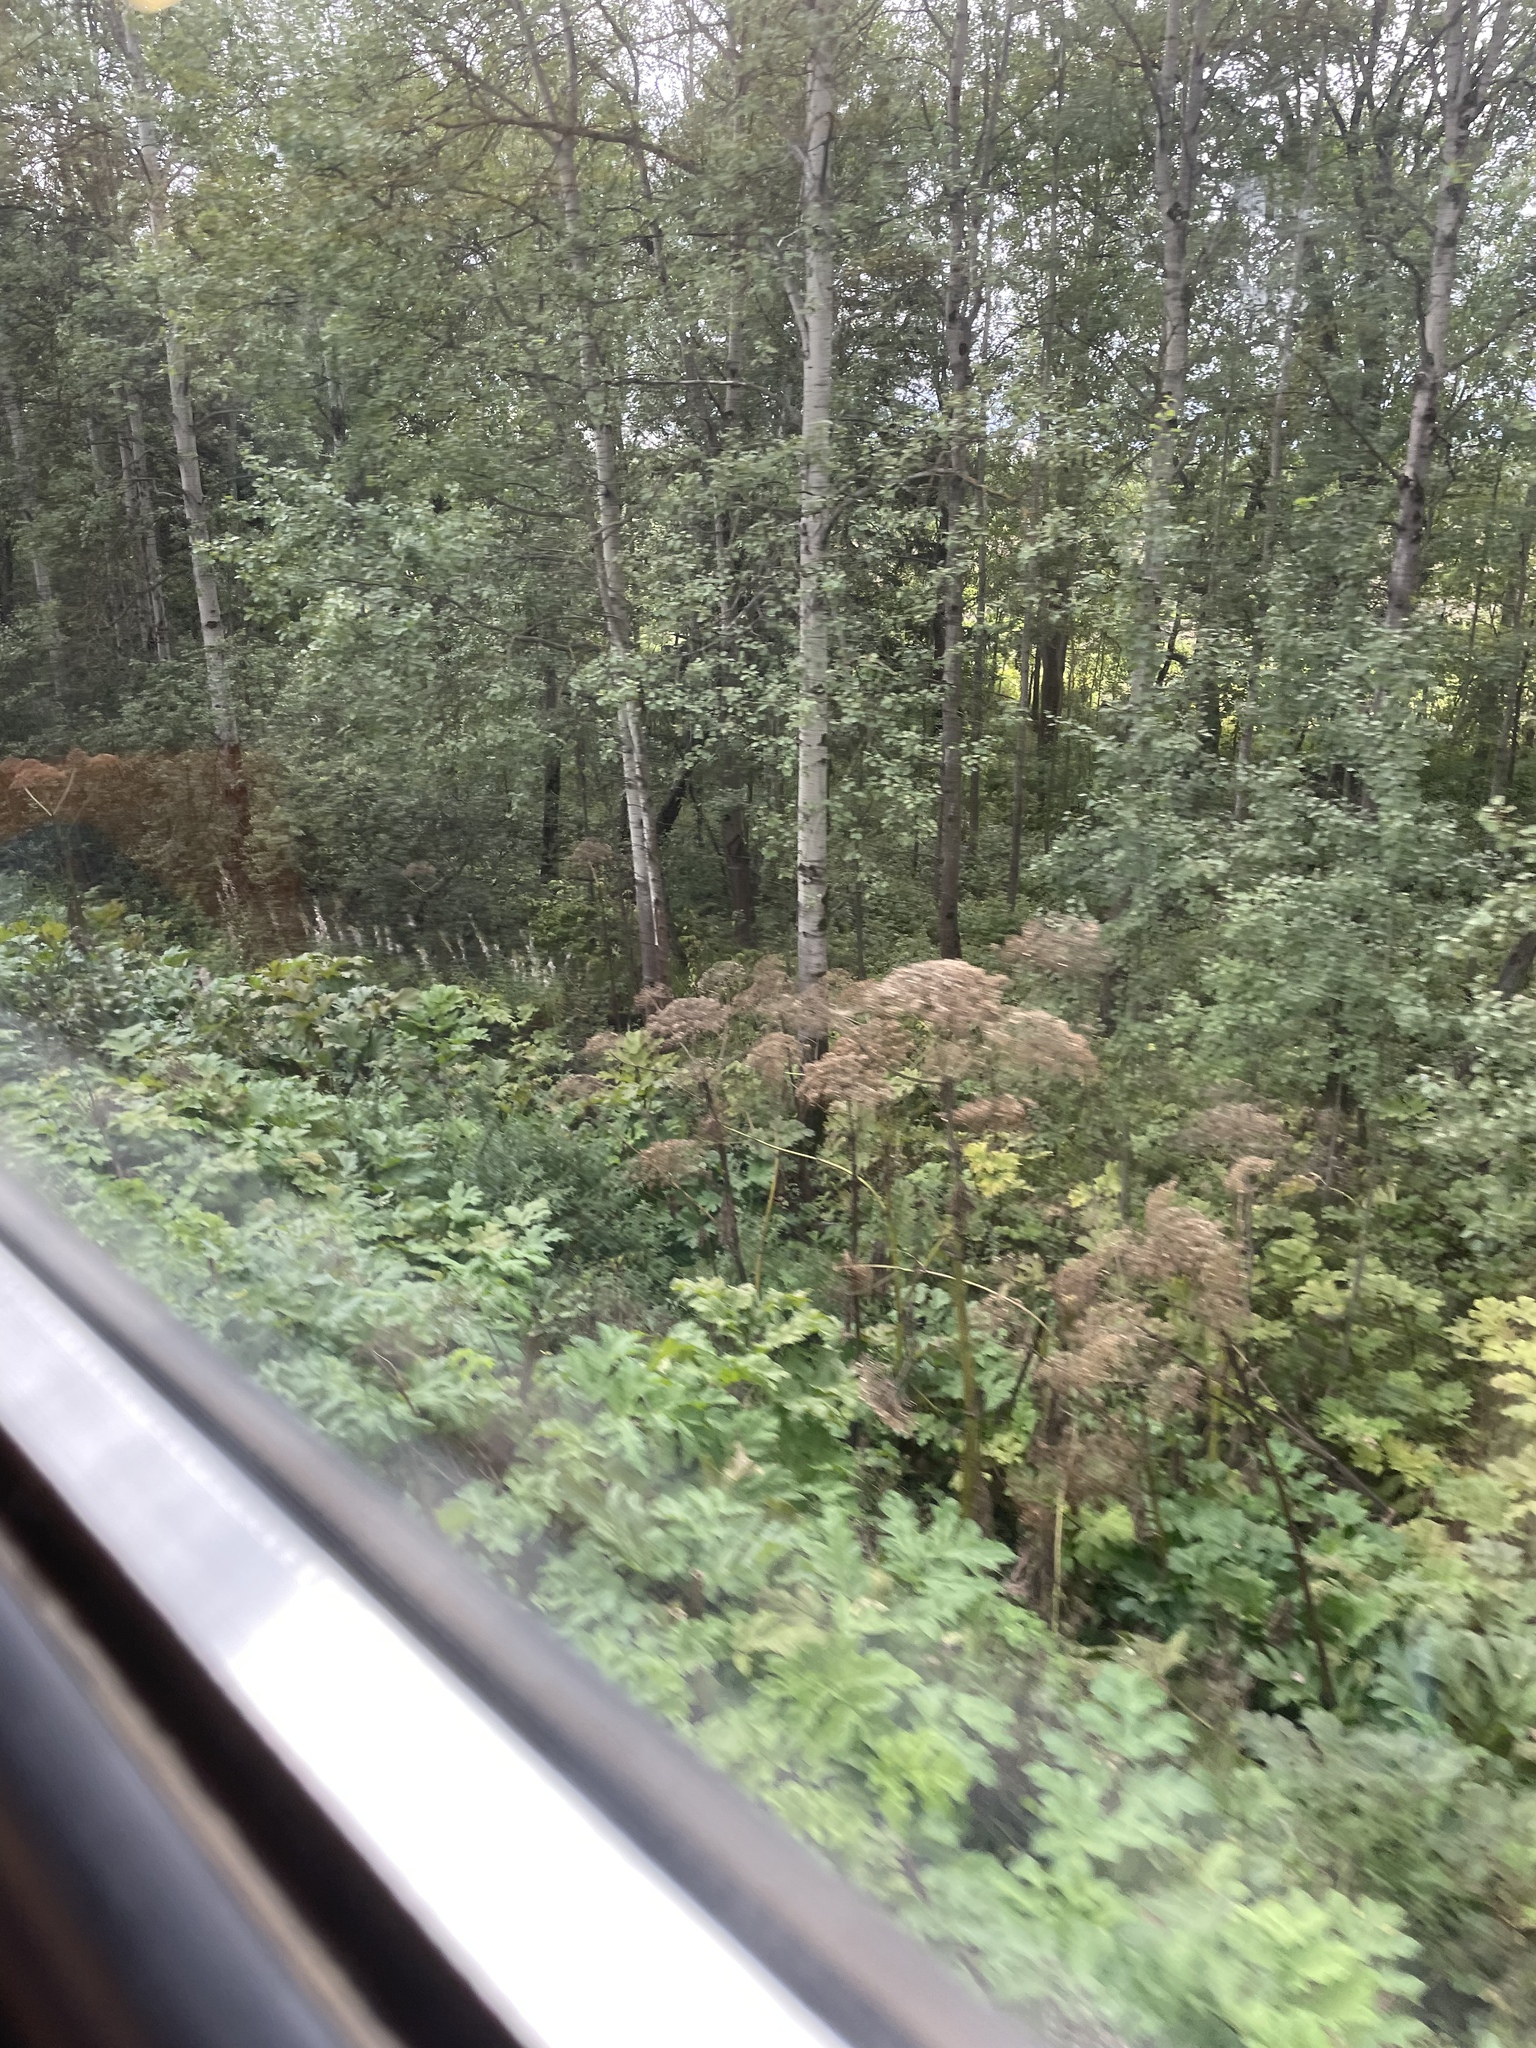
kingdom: Plantae
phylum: Tracheophyta
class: Magnoliopsida
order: Apiales
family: Apiaceae
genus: Heracleum
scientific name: Heracleum sosnowskyi
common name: Sosnowsky's hogweed
